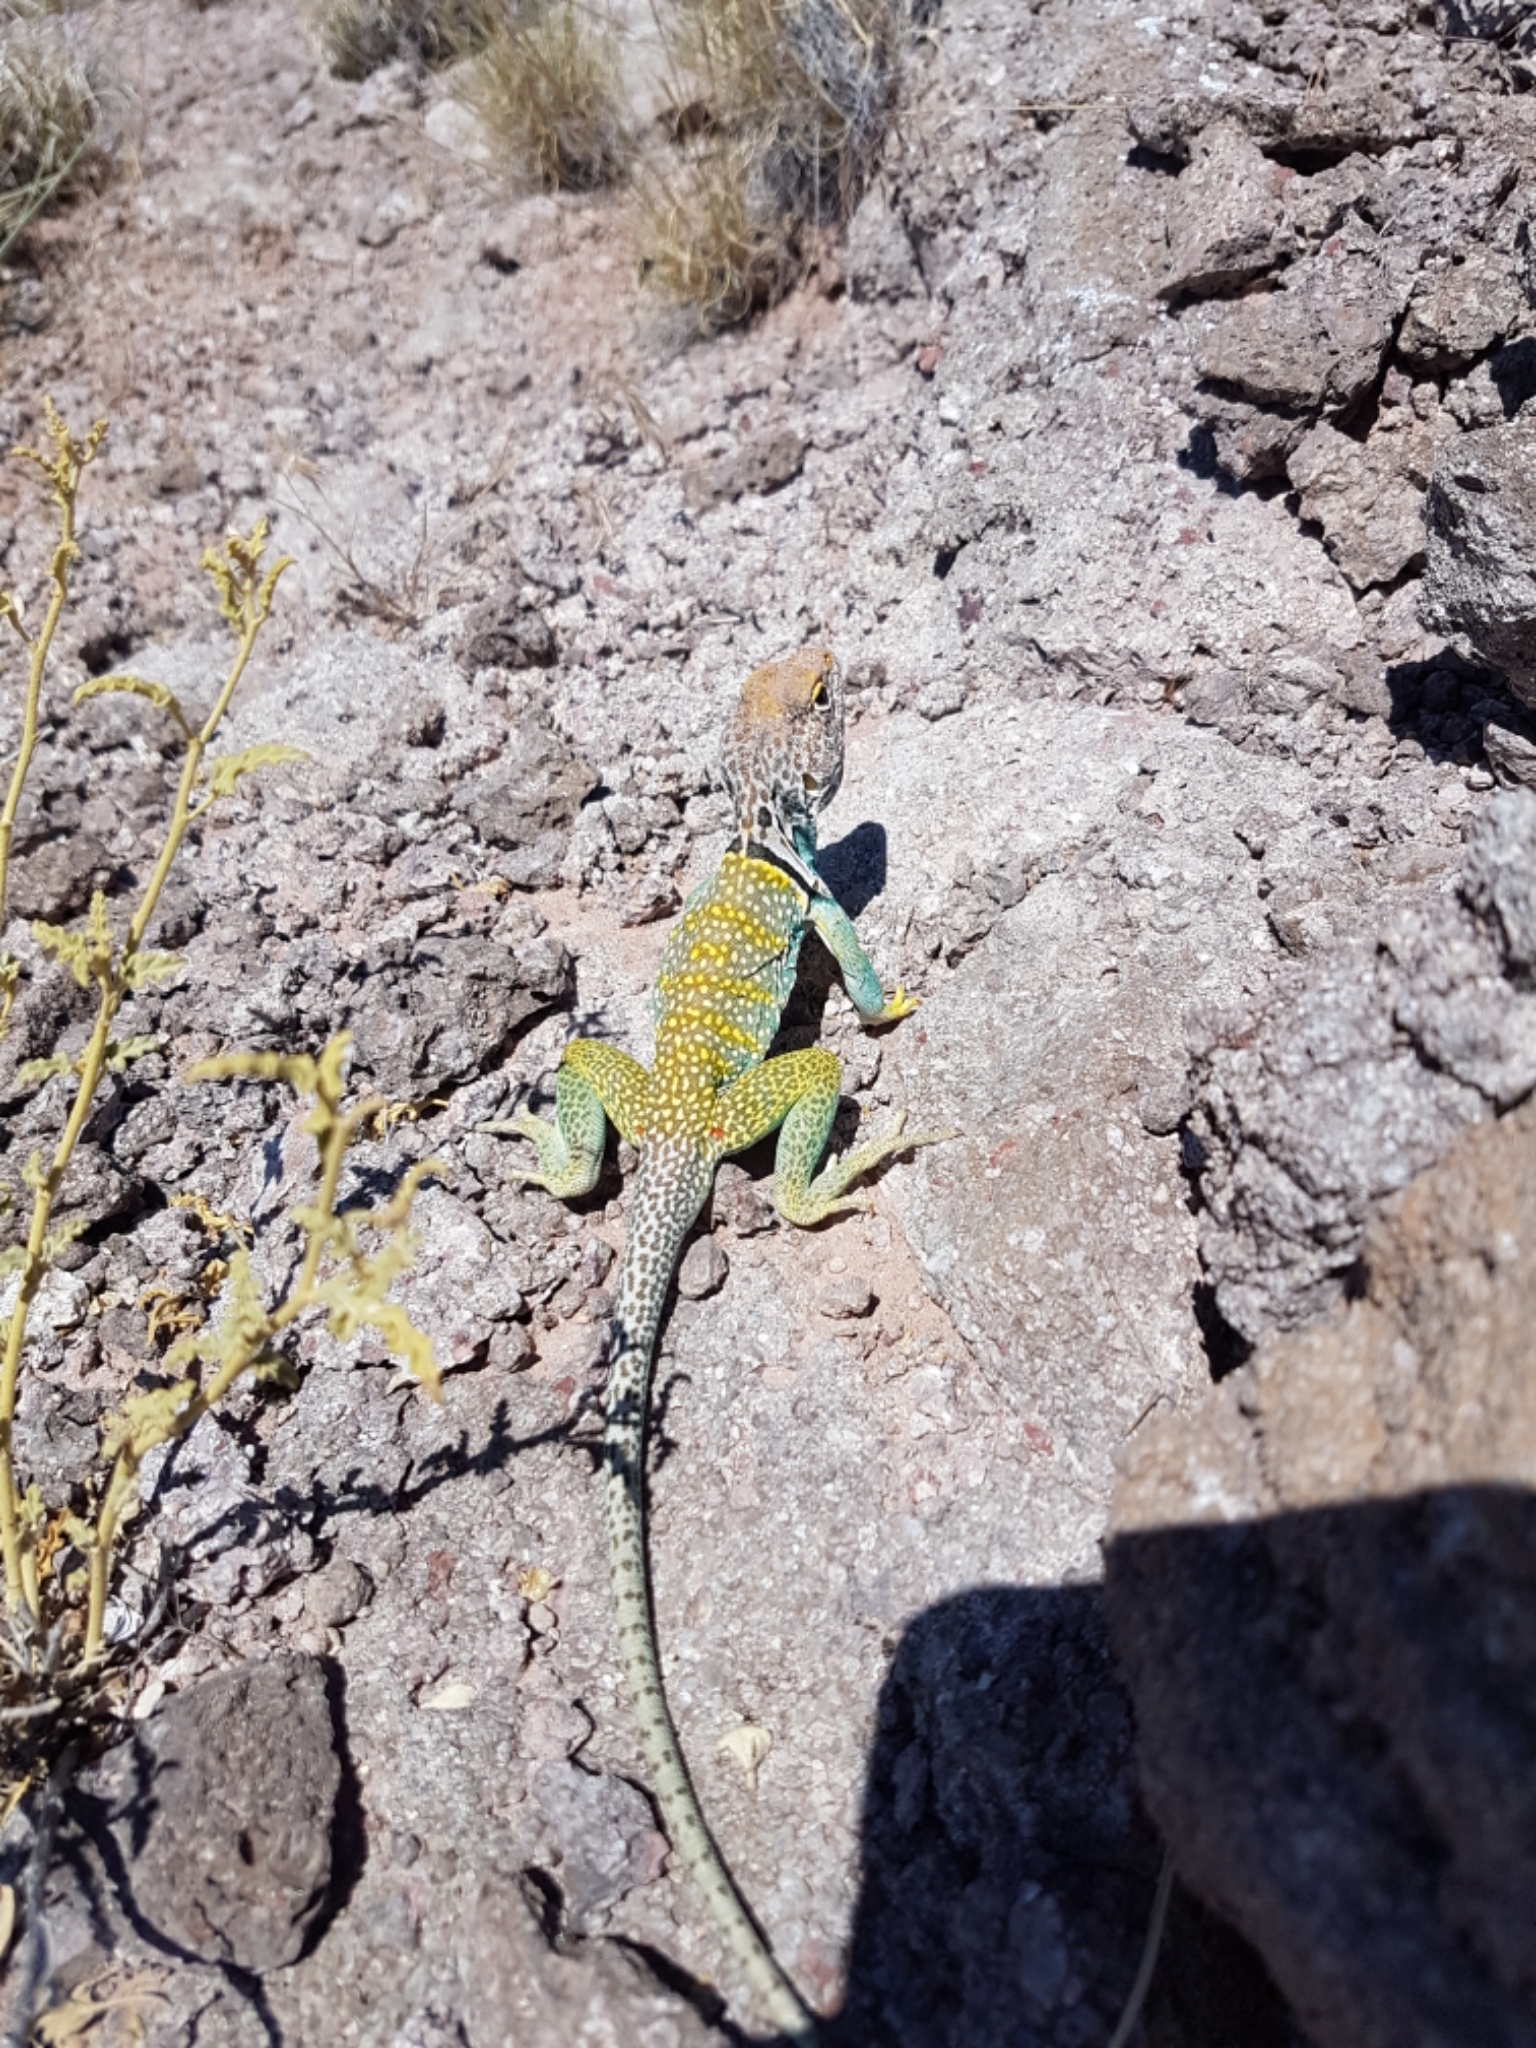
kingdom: Animalia
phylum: Chordata
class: Squamata
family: Crotaphytidae
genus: Crotaphytus
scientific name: Crotaphytus collaris
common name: Collared lizard
